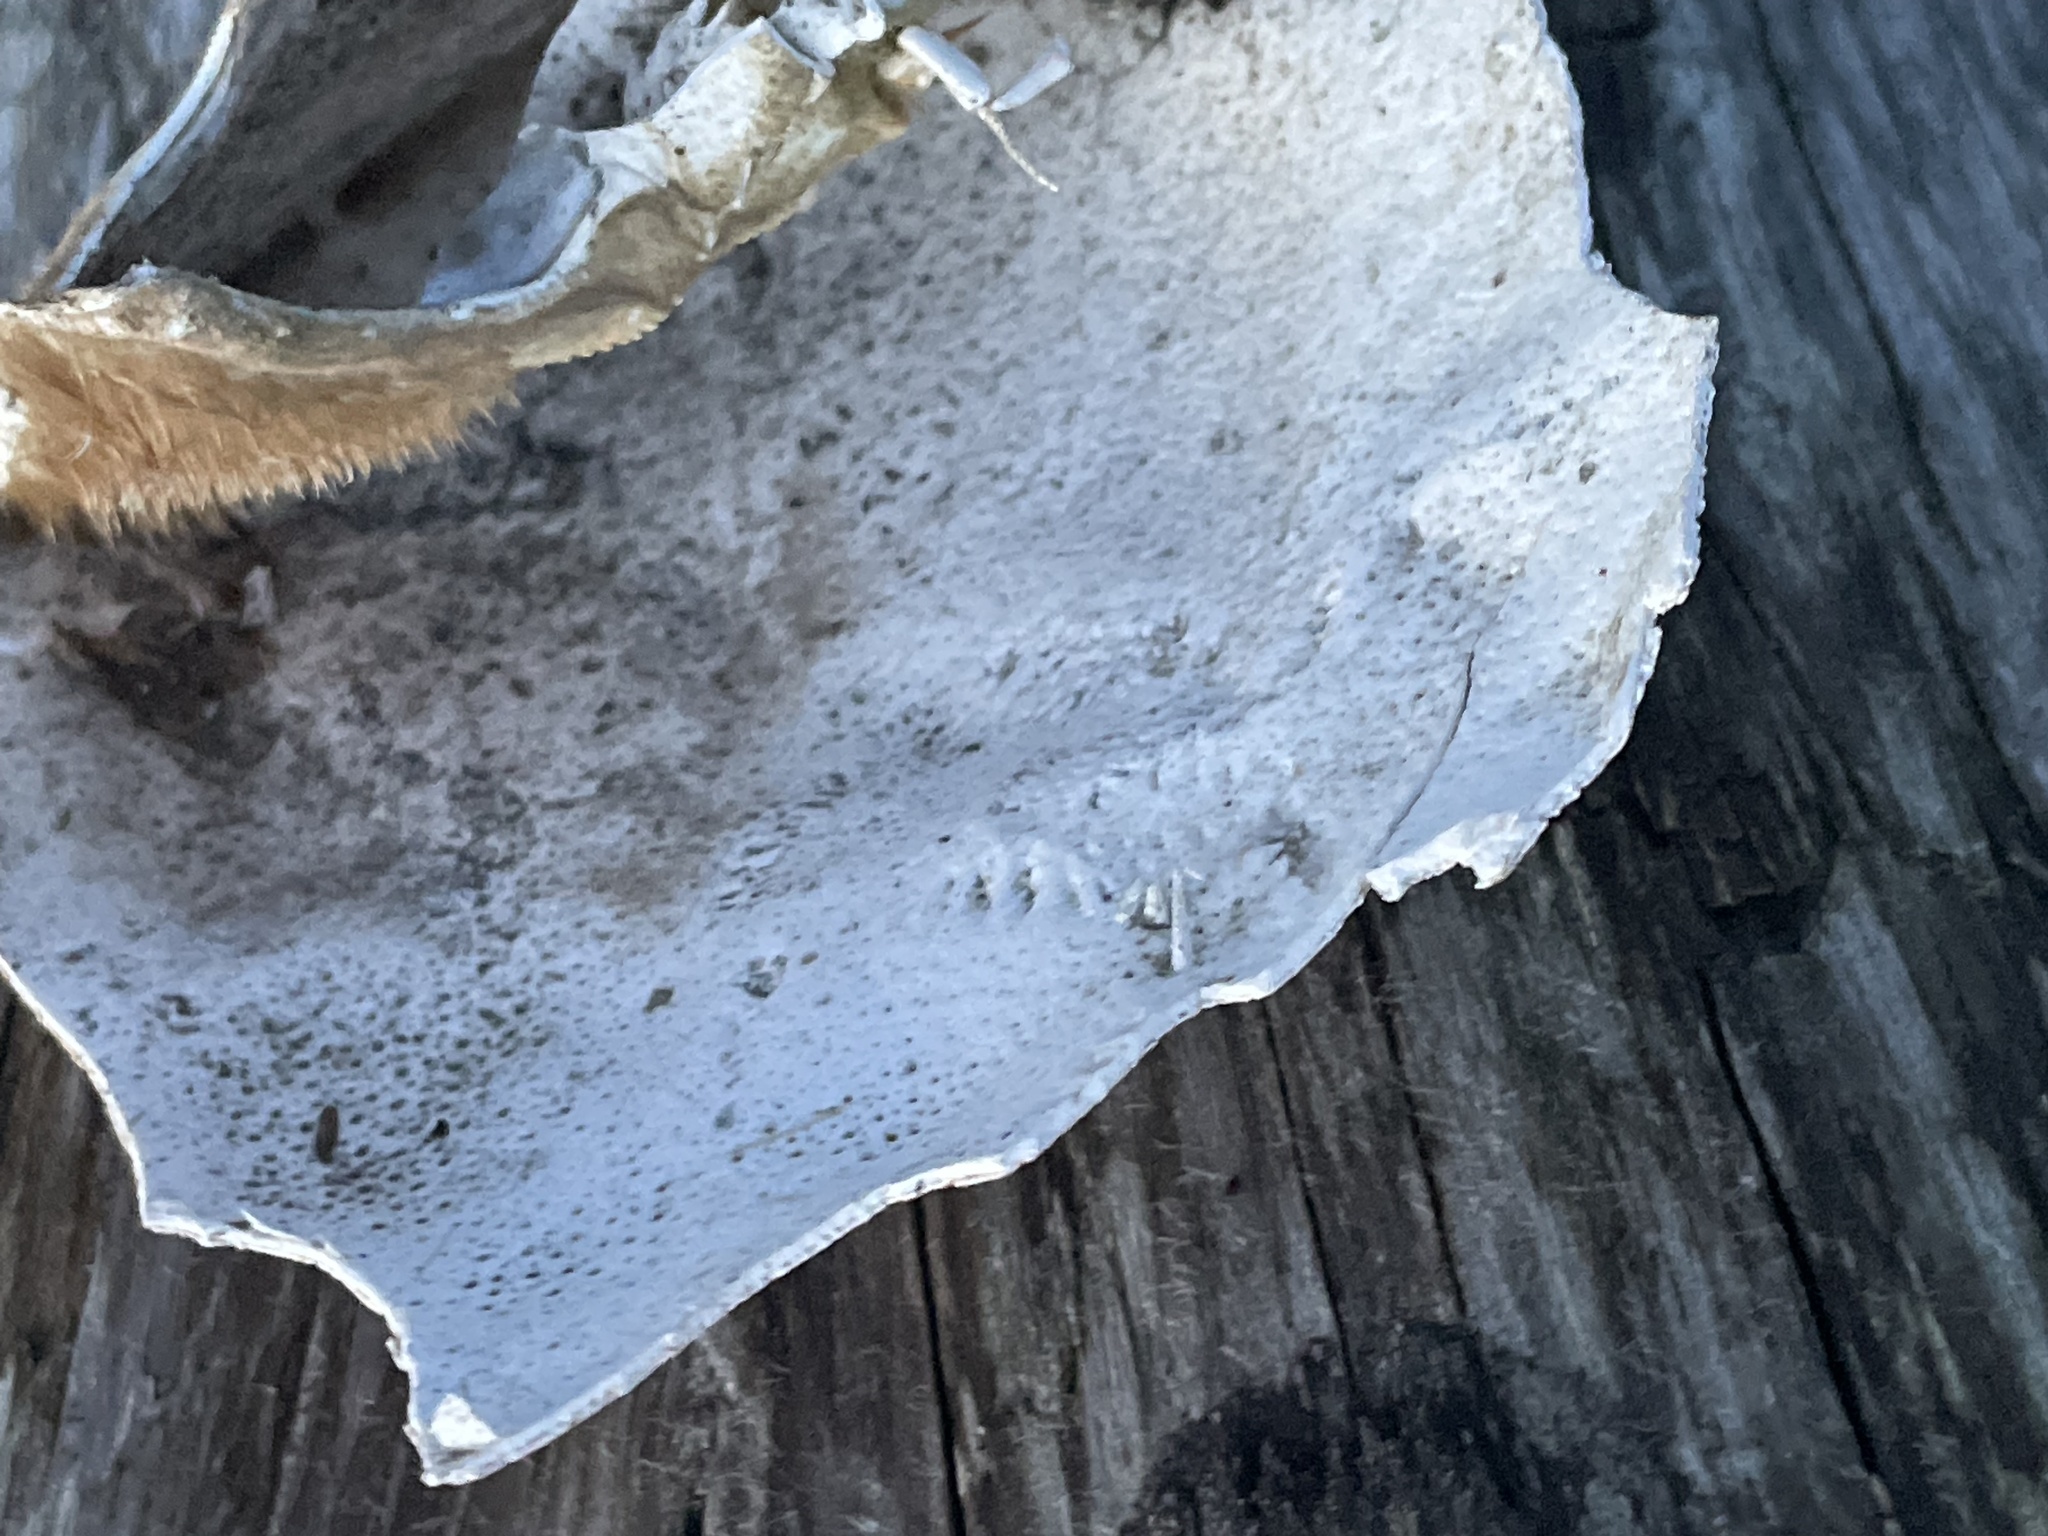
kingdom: Animalia
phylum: Arthropoda
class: Malacostraca
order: Decapoda
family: Cancridae
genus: Metacarcinus
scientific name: Metacarcinus magister
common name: Californian crab
